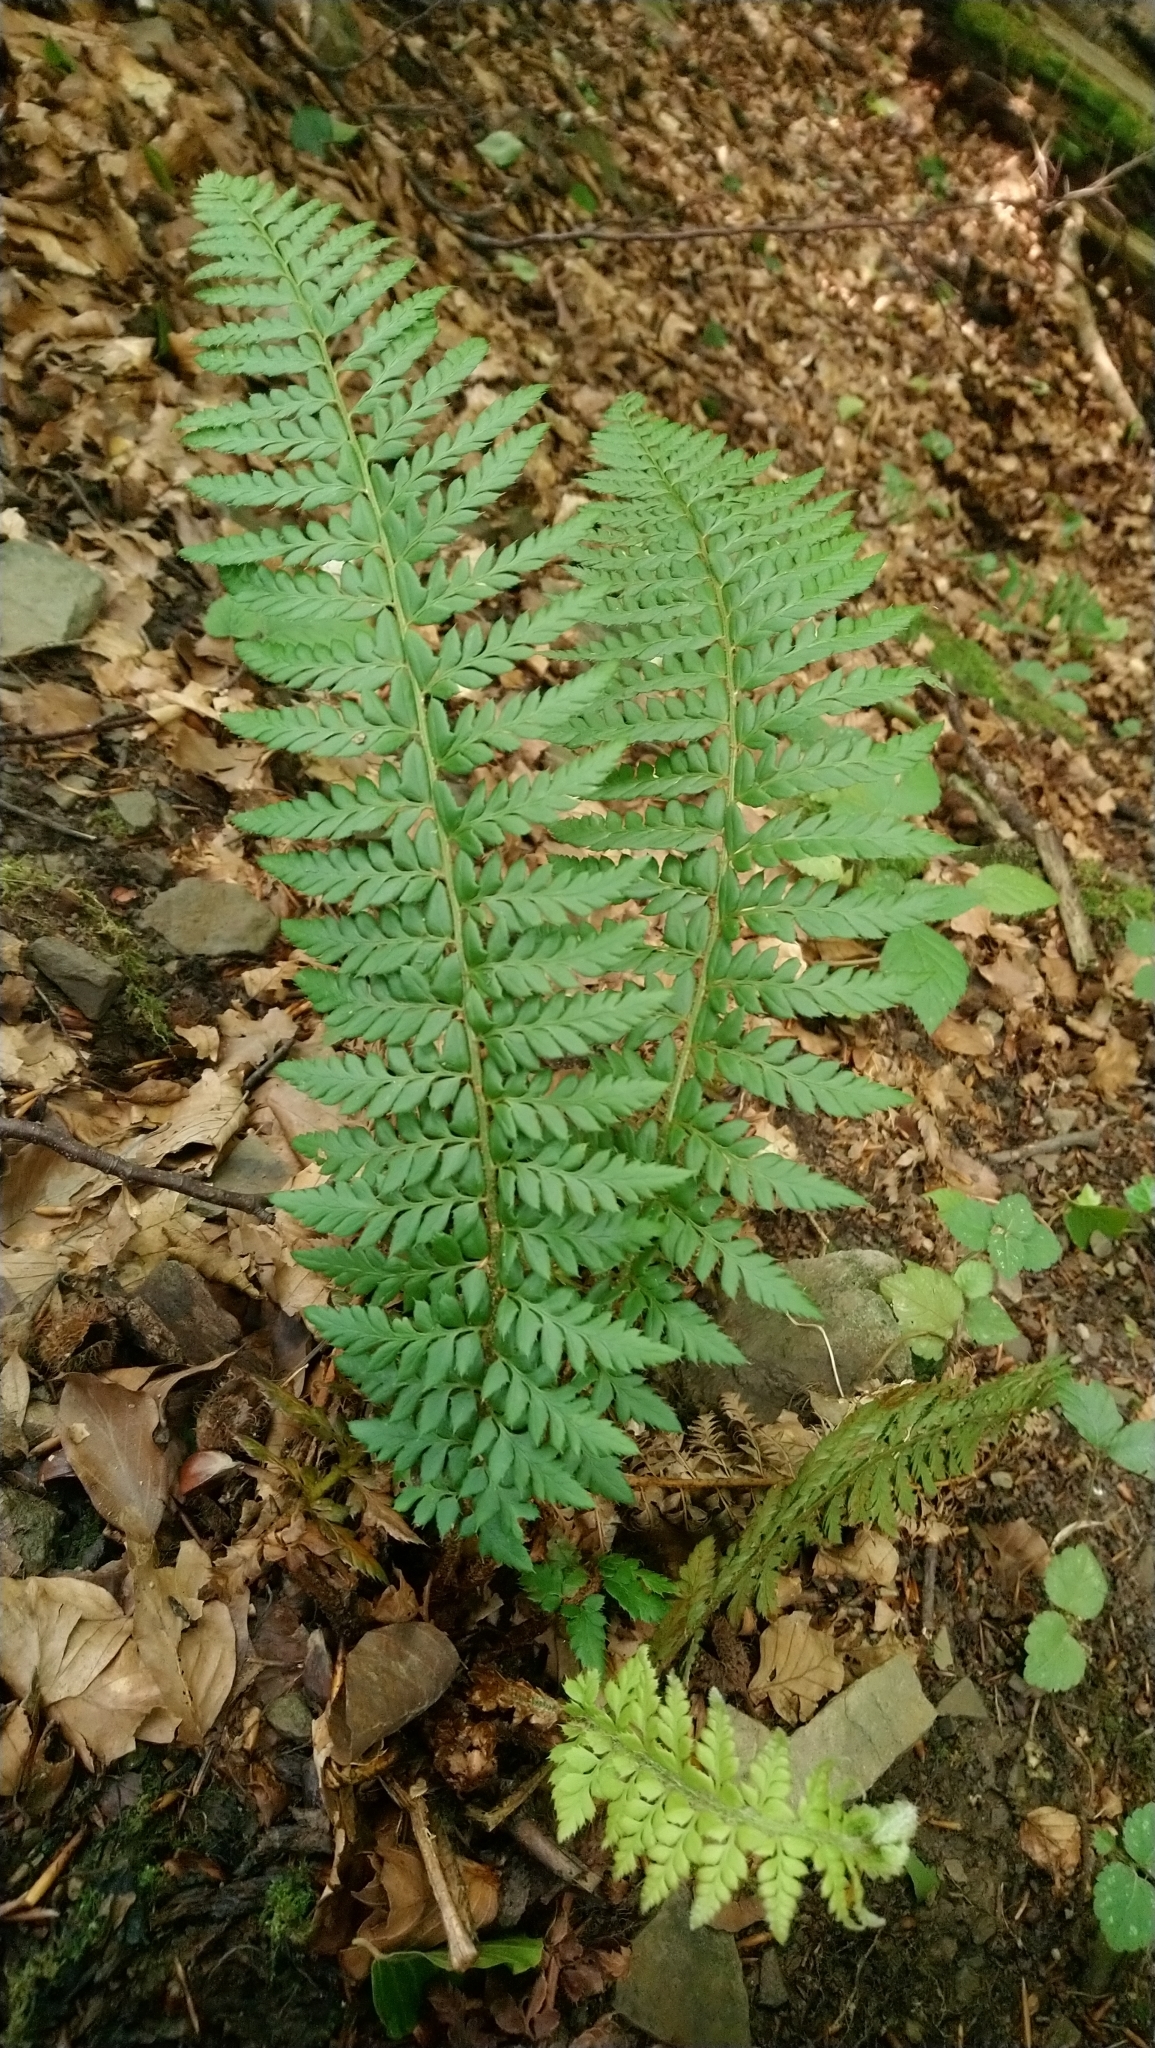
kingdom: Plantae
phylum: Tracheophyta
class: Polypodiopsida
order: Polypodiales
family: Dryopteridaceae
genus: Polystichum
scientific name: Polystichum aculeatum
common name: Hard shield-fern
